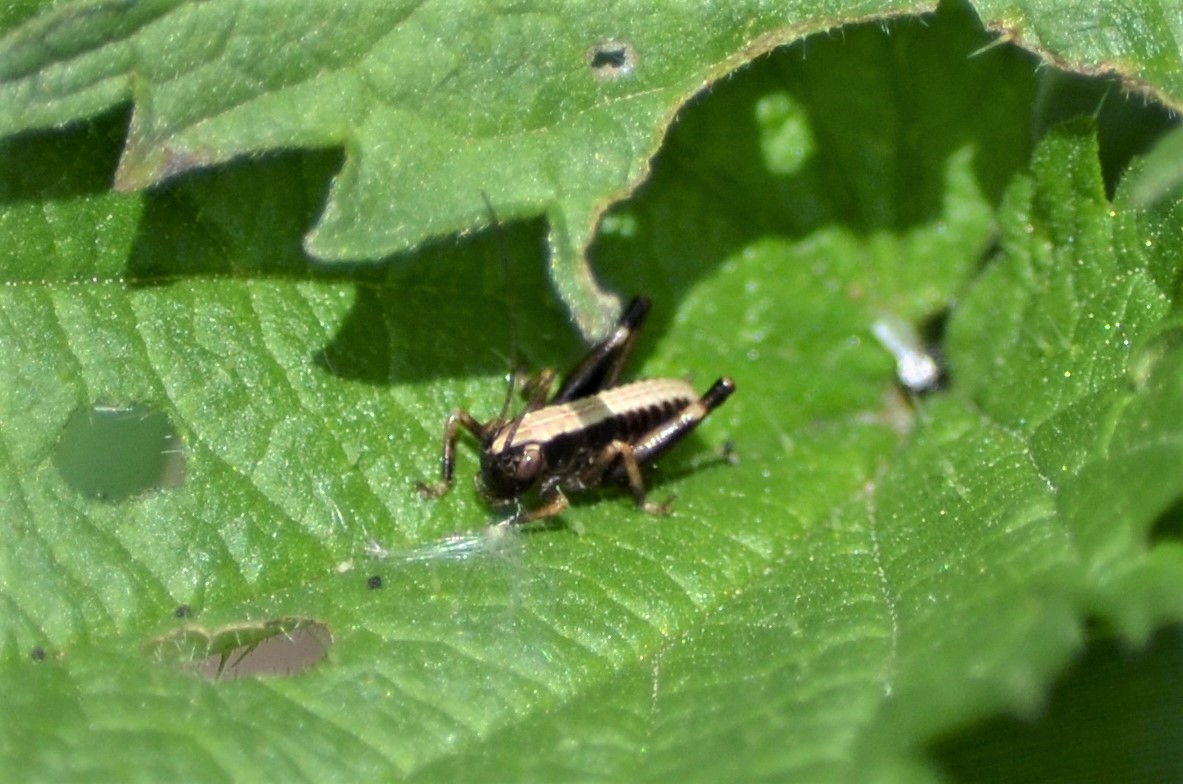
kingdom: Animalia
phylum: Arthropoda
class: Insecta
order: Orthoptera
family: Tettigoniidae
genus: Pholidoptera
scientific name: Pholidoptera griseoaptera
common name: Dark bush-cricket
